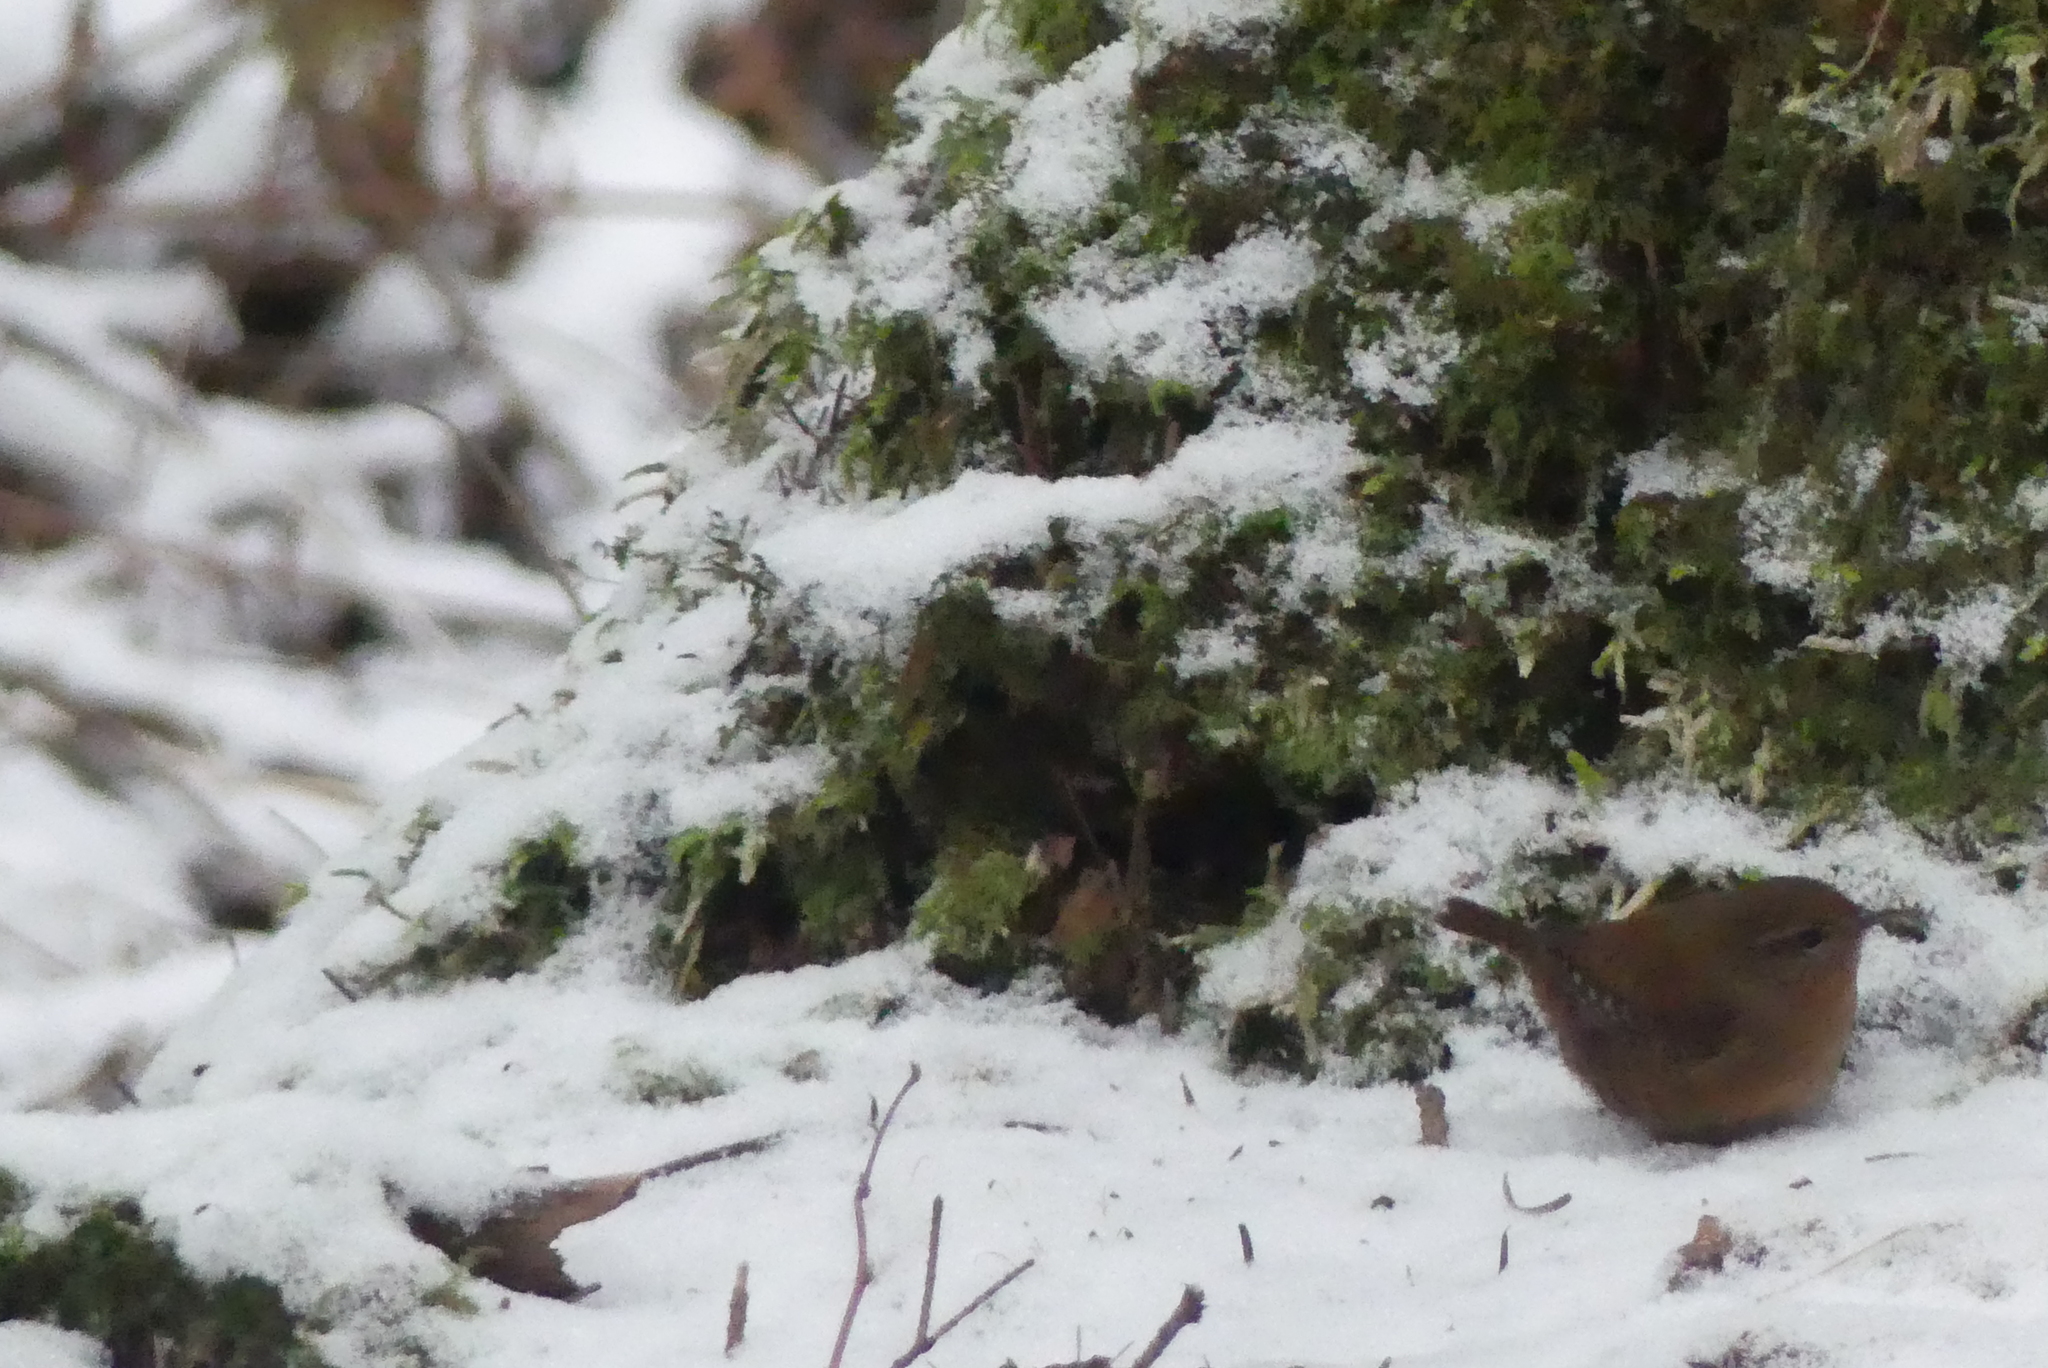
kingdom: Animalia
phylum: Chordata
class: Aves
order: Passeriformes
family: Troglodytidae
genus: Troglodytes
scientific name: Troglodytes pacificus
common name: Pacific wren
